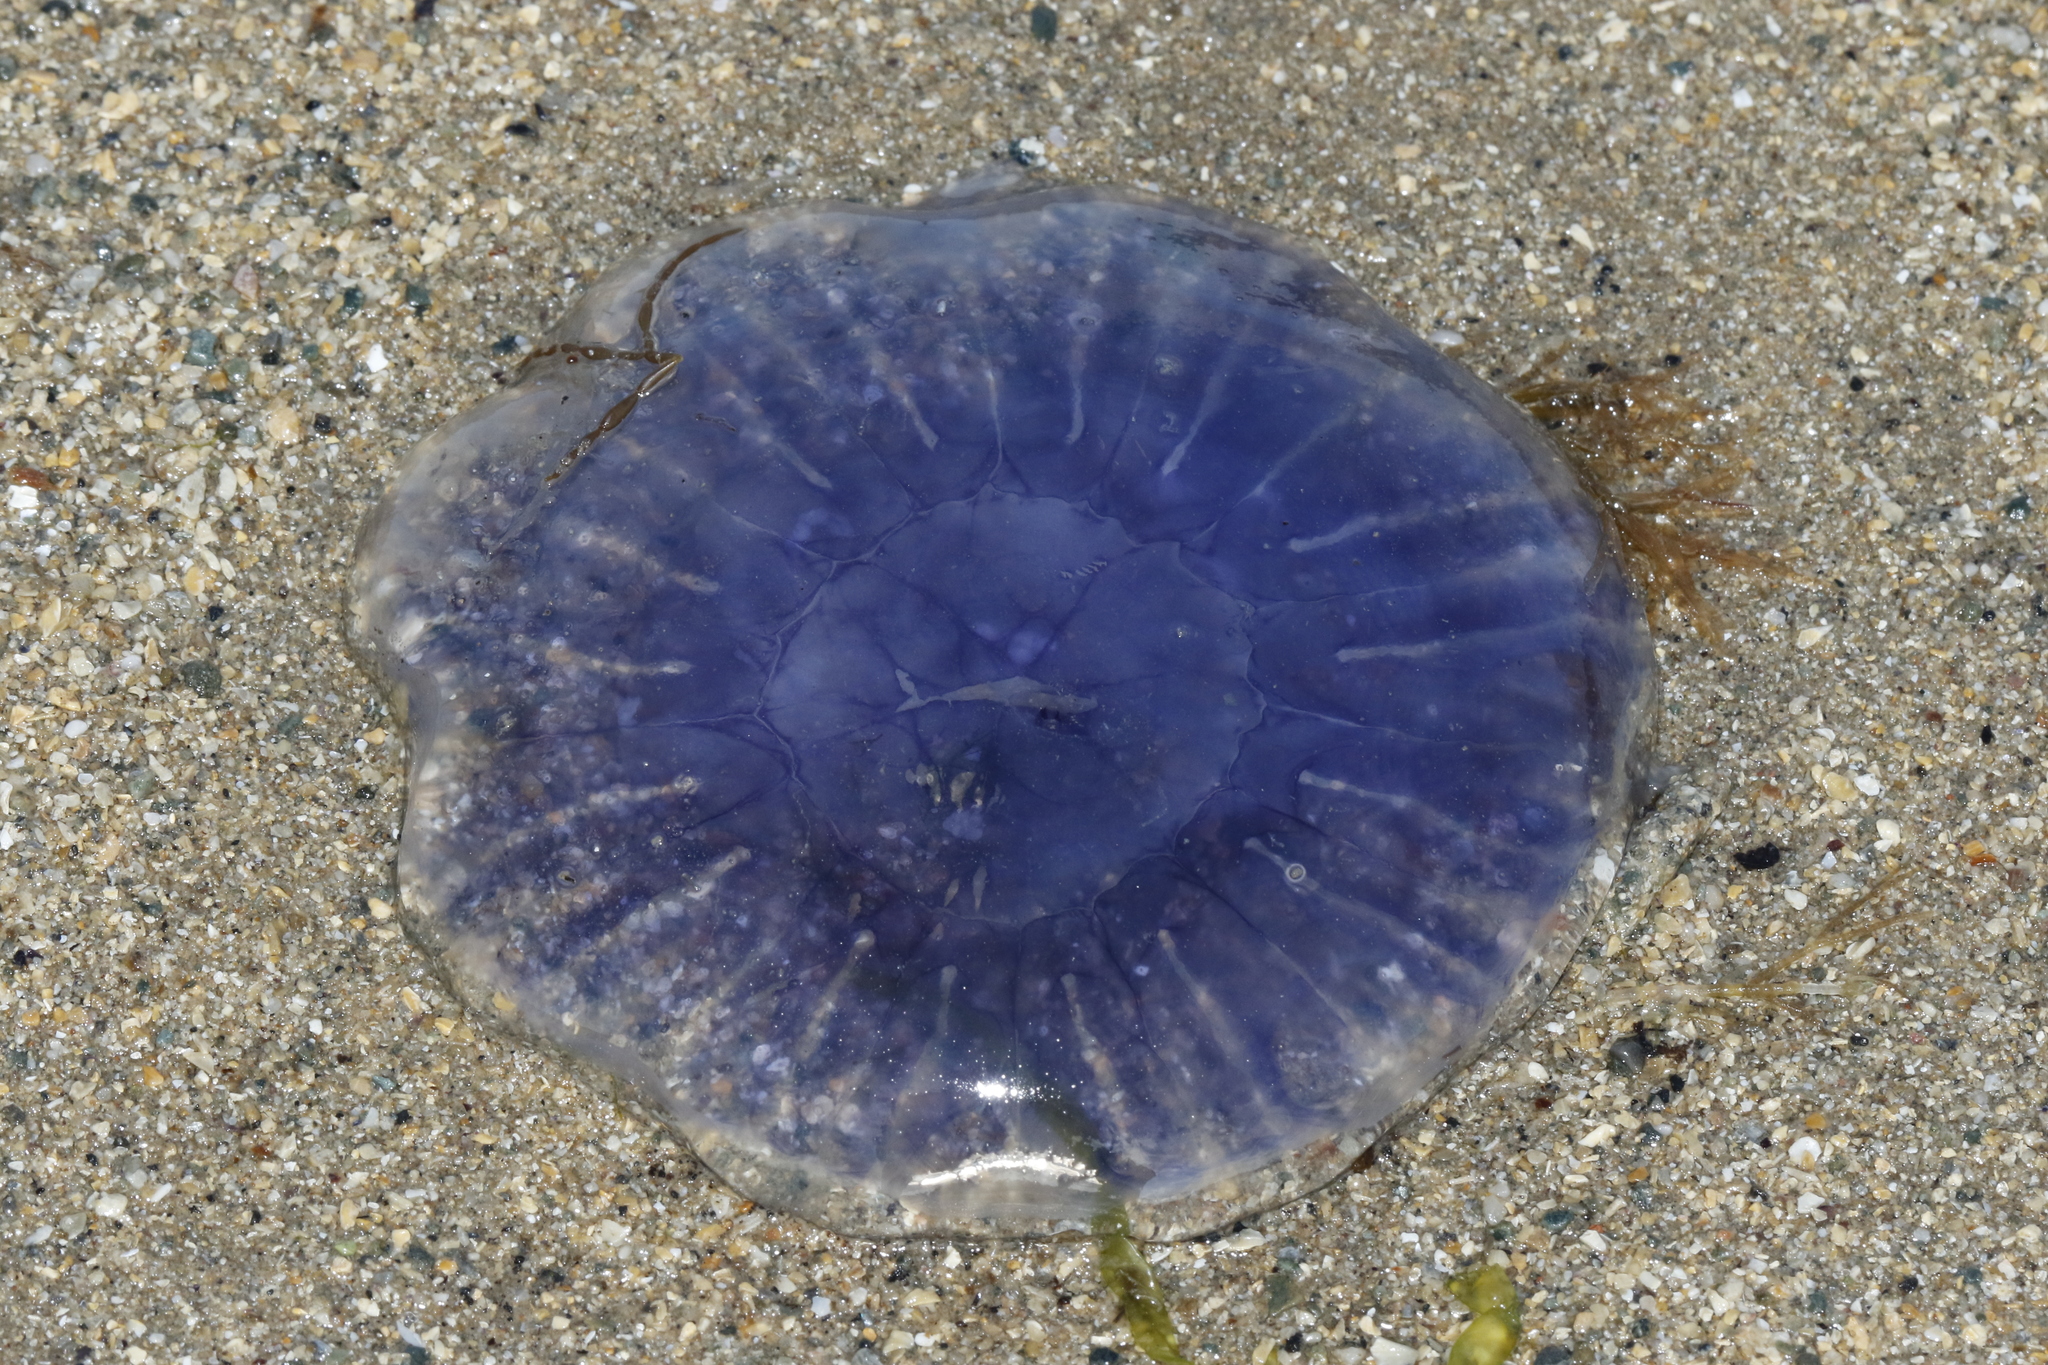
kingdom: Animalia
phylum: Cnidaria
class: Scyphozoa
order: Semaeostomeae
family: Cyaneidae
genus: Cyanea
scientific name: Cyanea lamarckii
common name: Blue jellyfish
